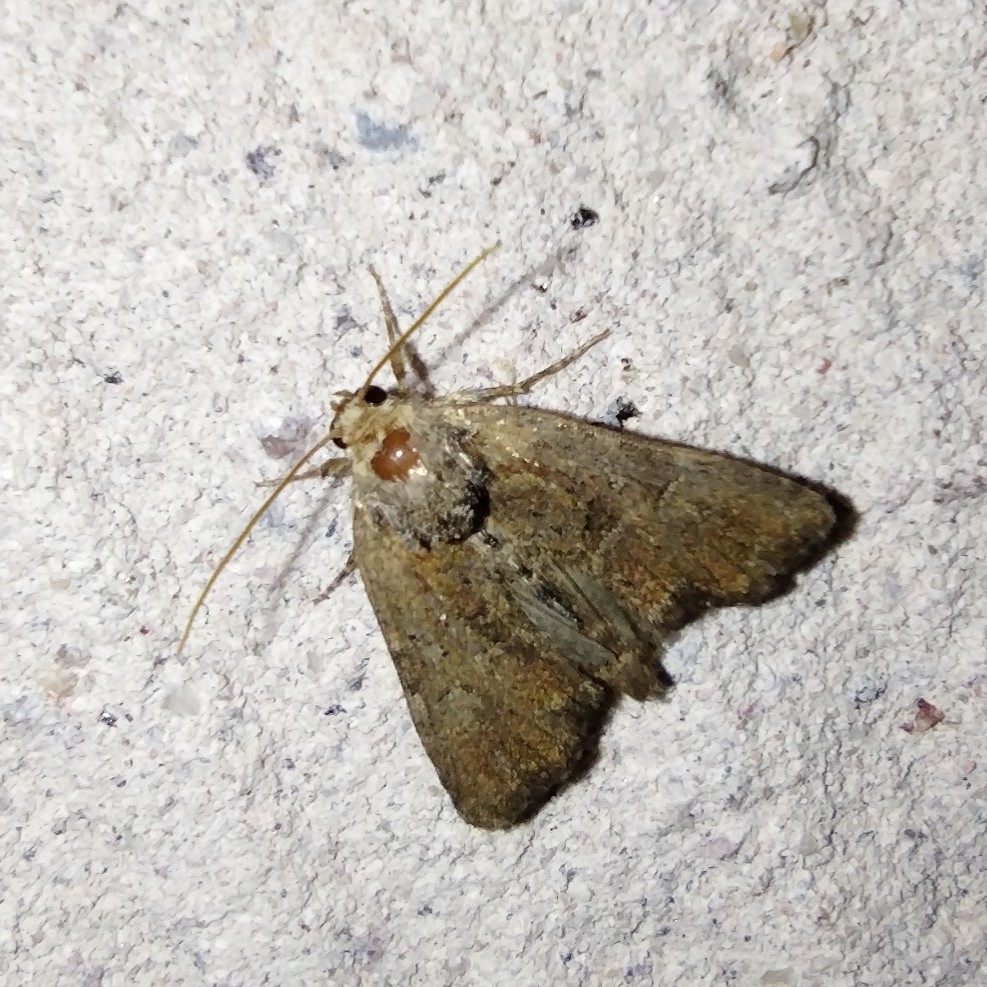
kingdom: Animalia
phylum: Arthropoda
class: Insecta
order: Lepidoptera
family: Noctuidae
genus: Mesoligia
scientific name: Mesoligia furuncula
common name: Cloaked minor
